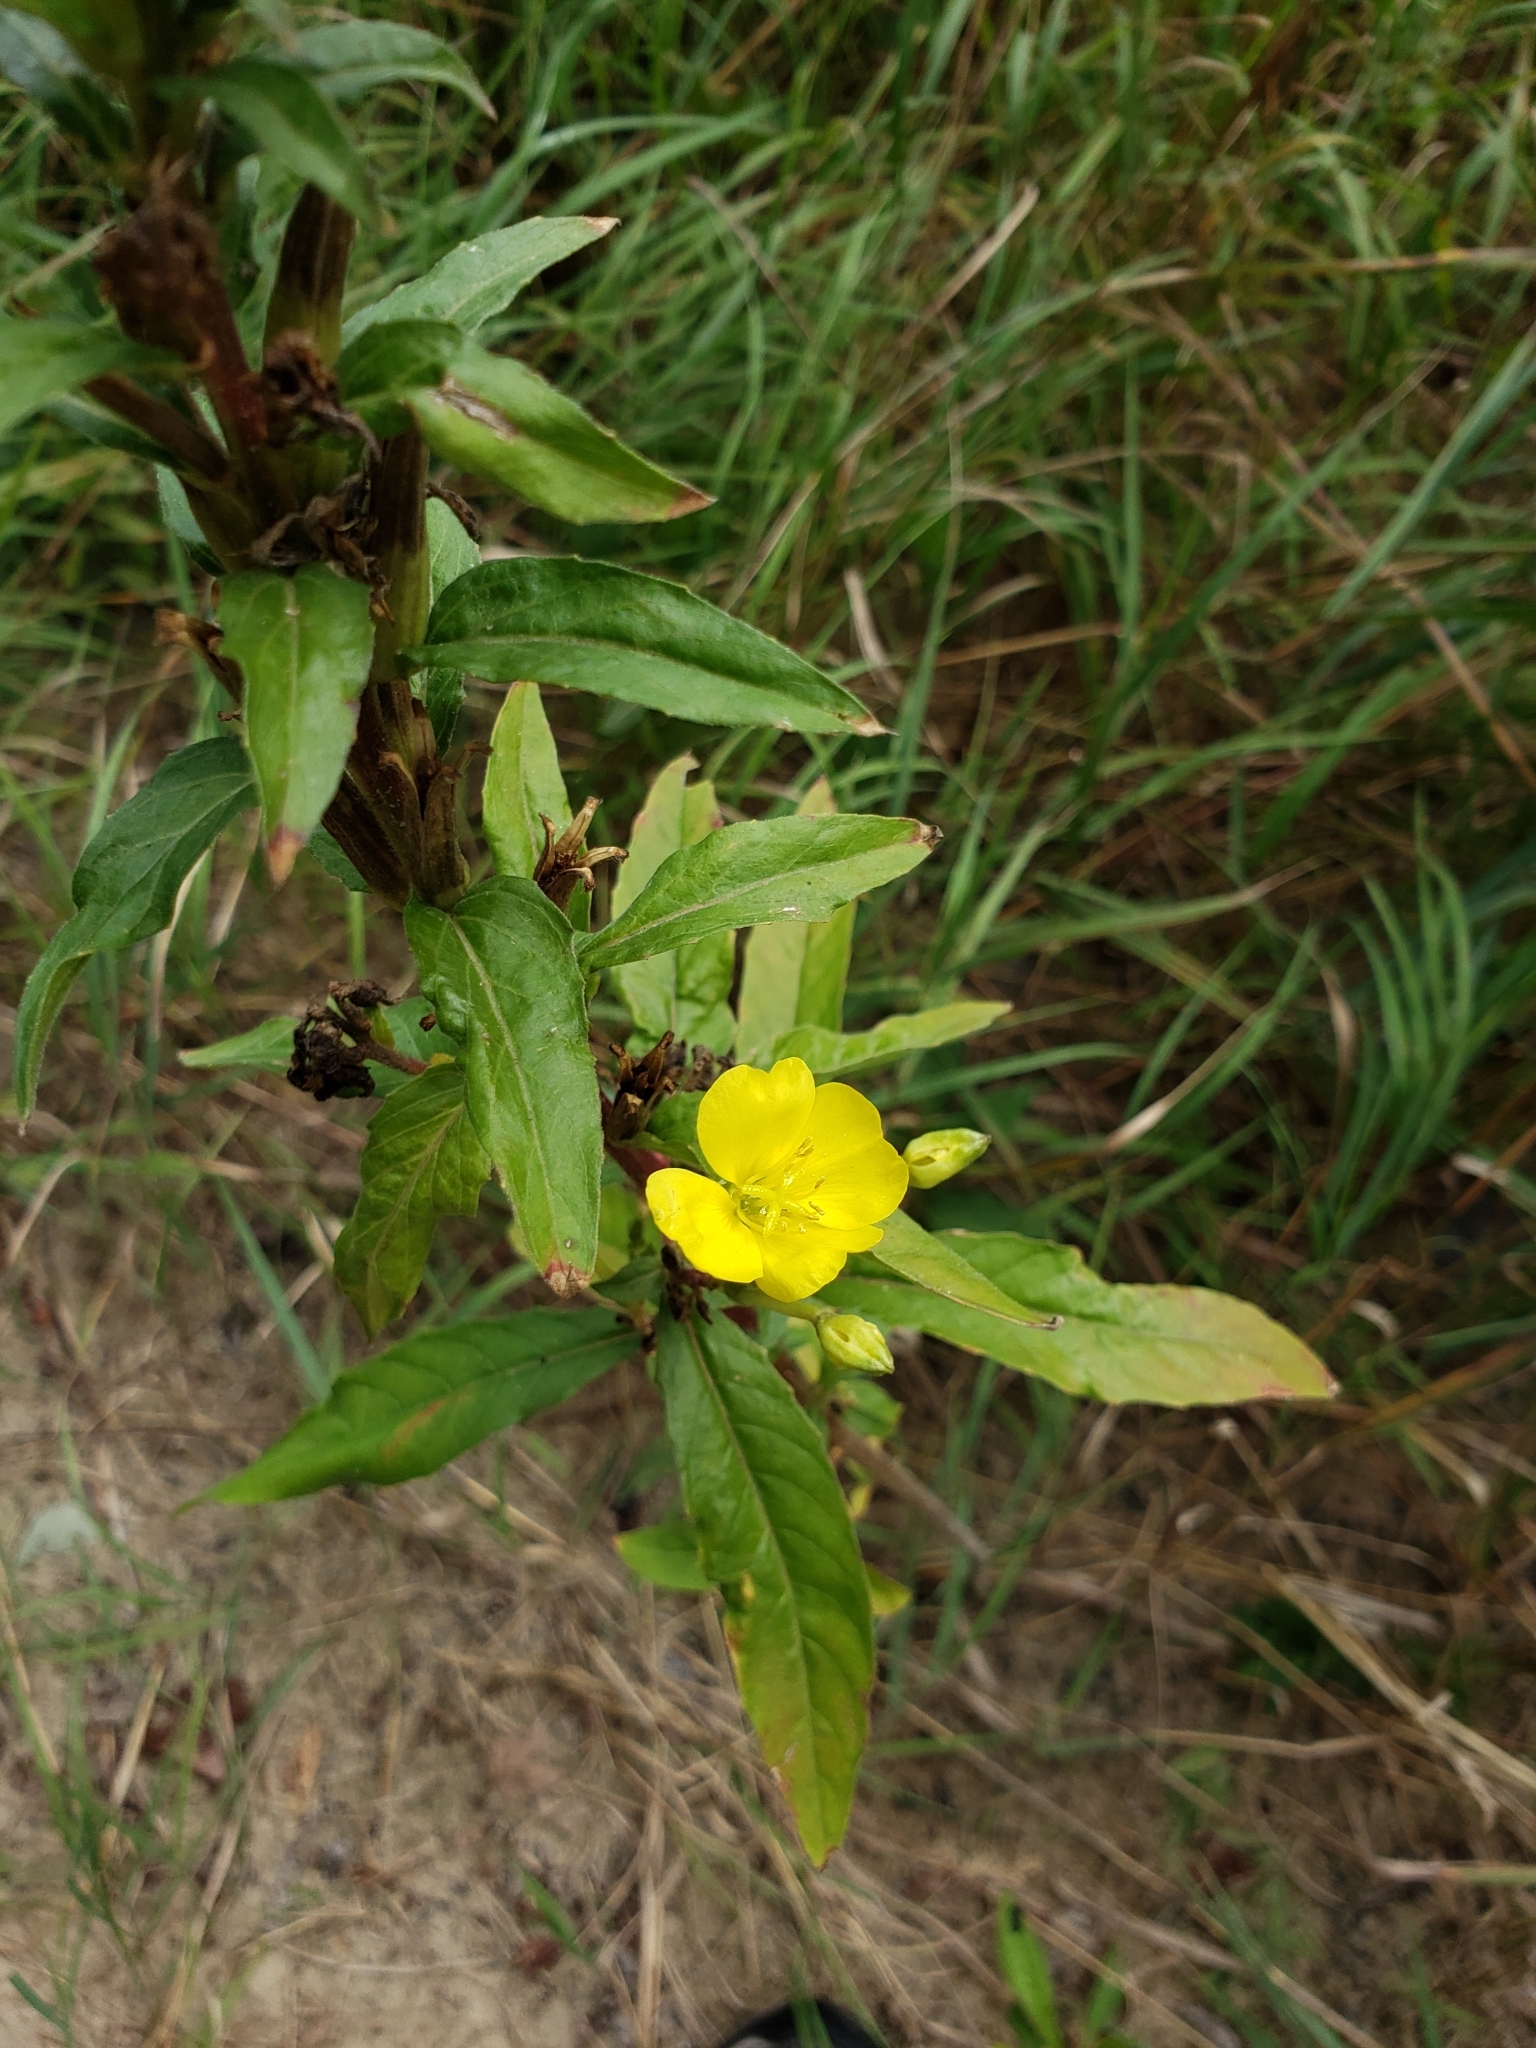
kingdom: Plantae
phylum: Tracheophyta
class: Magnoliopsida
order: Myrtales
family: Onagraceae
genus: Oenothera
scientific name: Oenothera biennis
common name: Common evening-primrose
